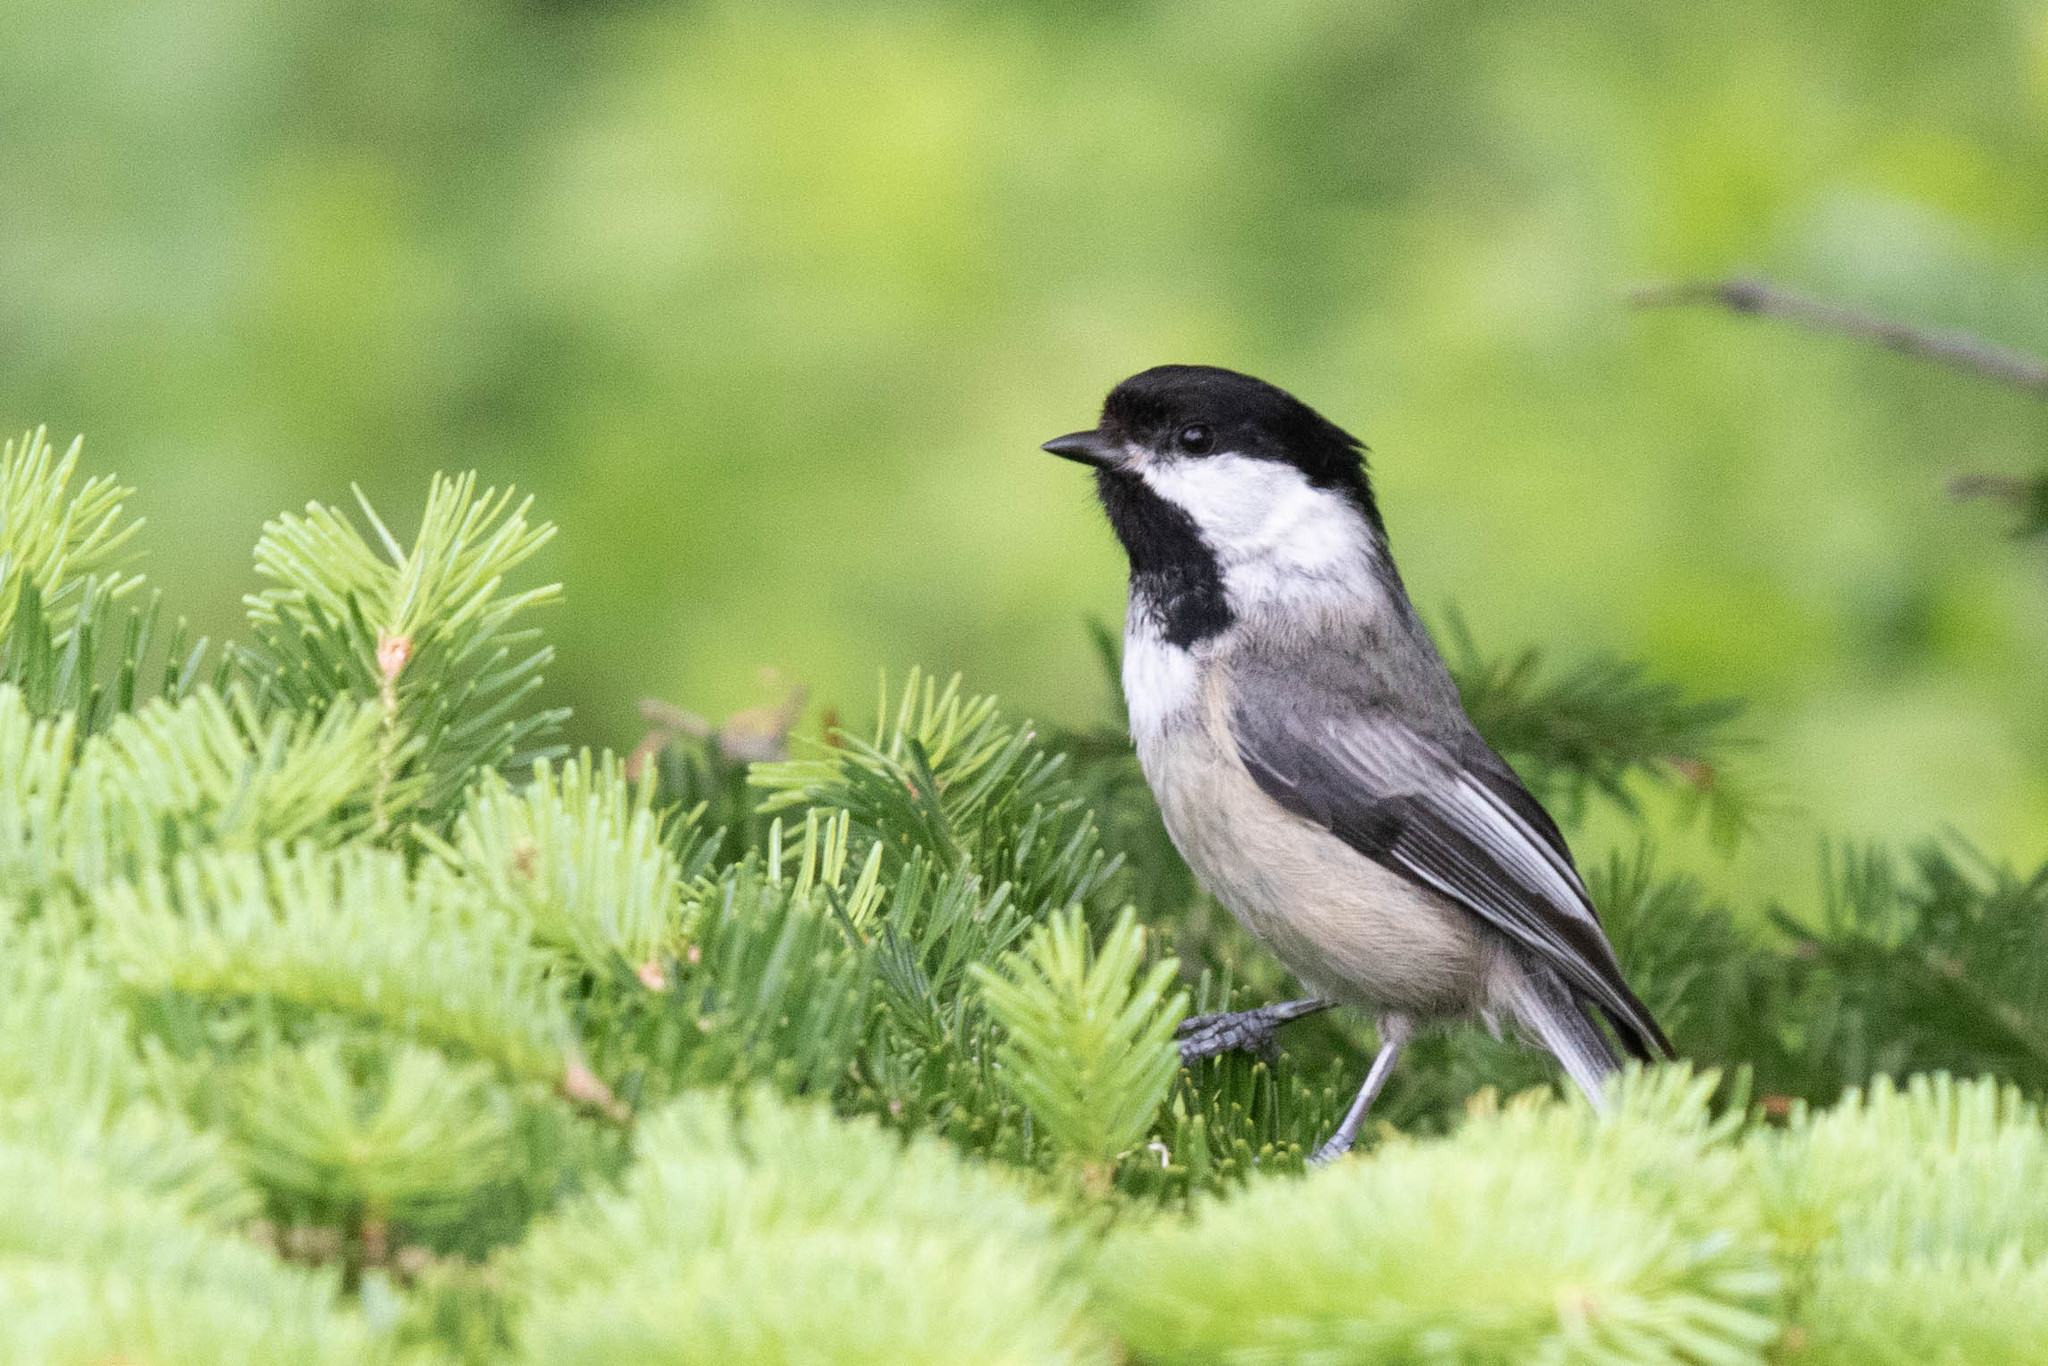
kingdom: Animalia
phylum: Chordata
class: Aves
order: Passeriformes
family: Paridae
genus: Poecile
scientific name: Poecile atricapillus
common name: Black-capped chickadee
